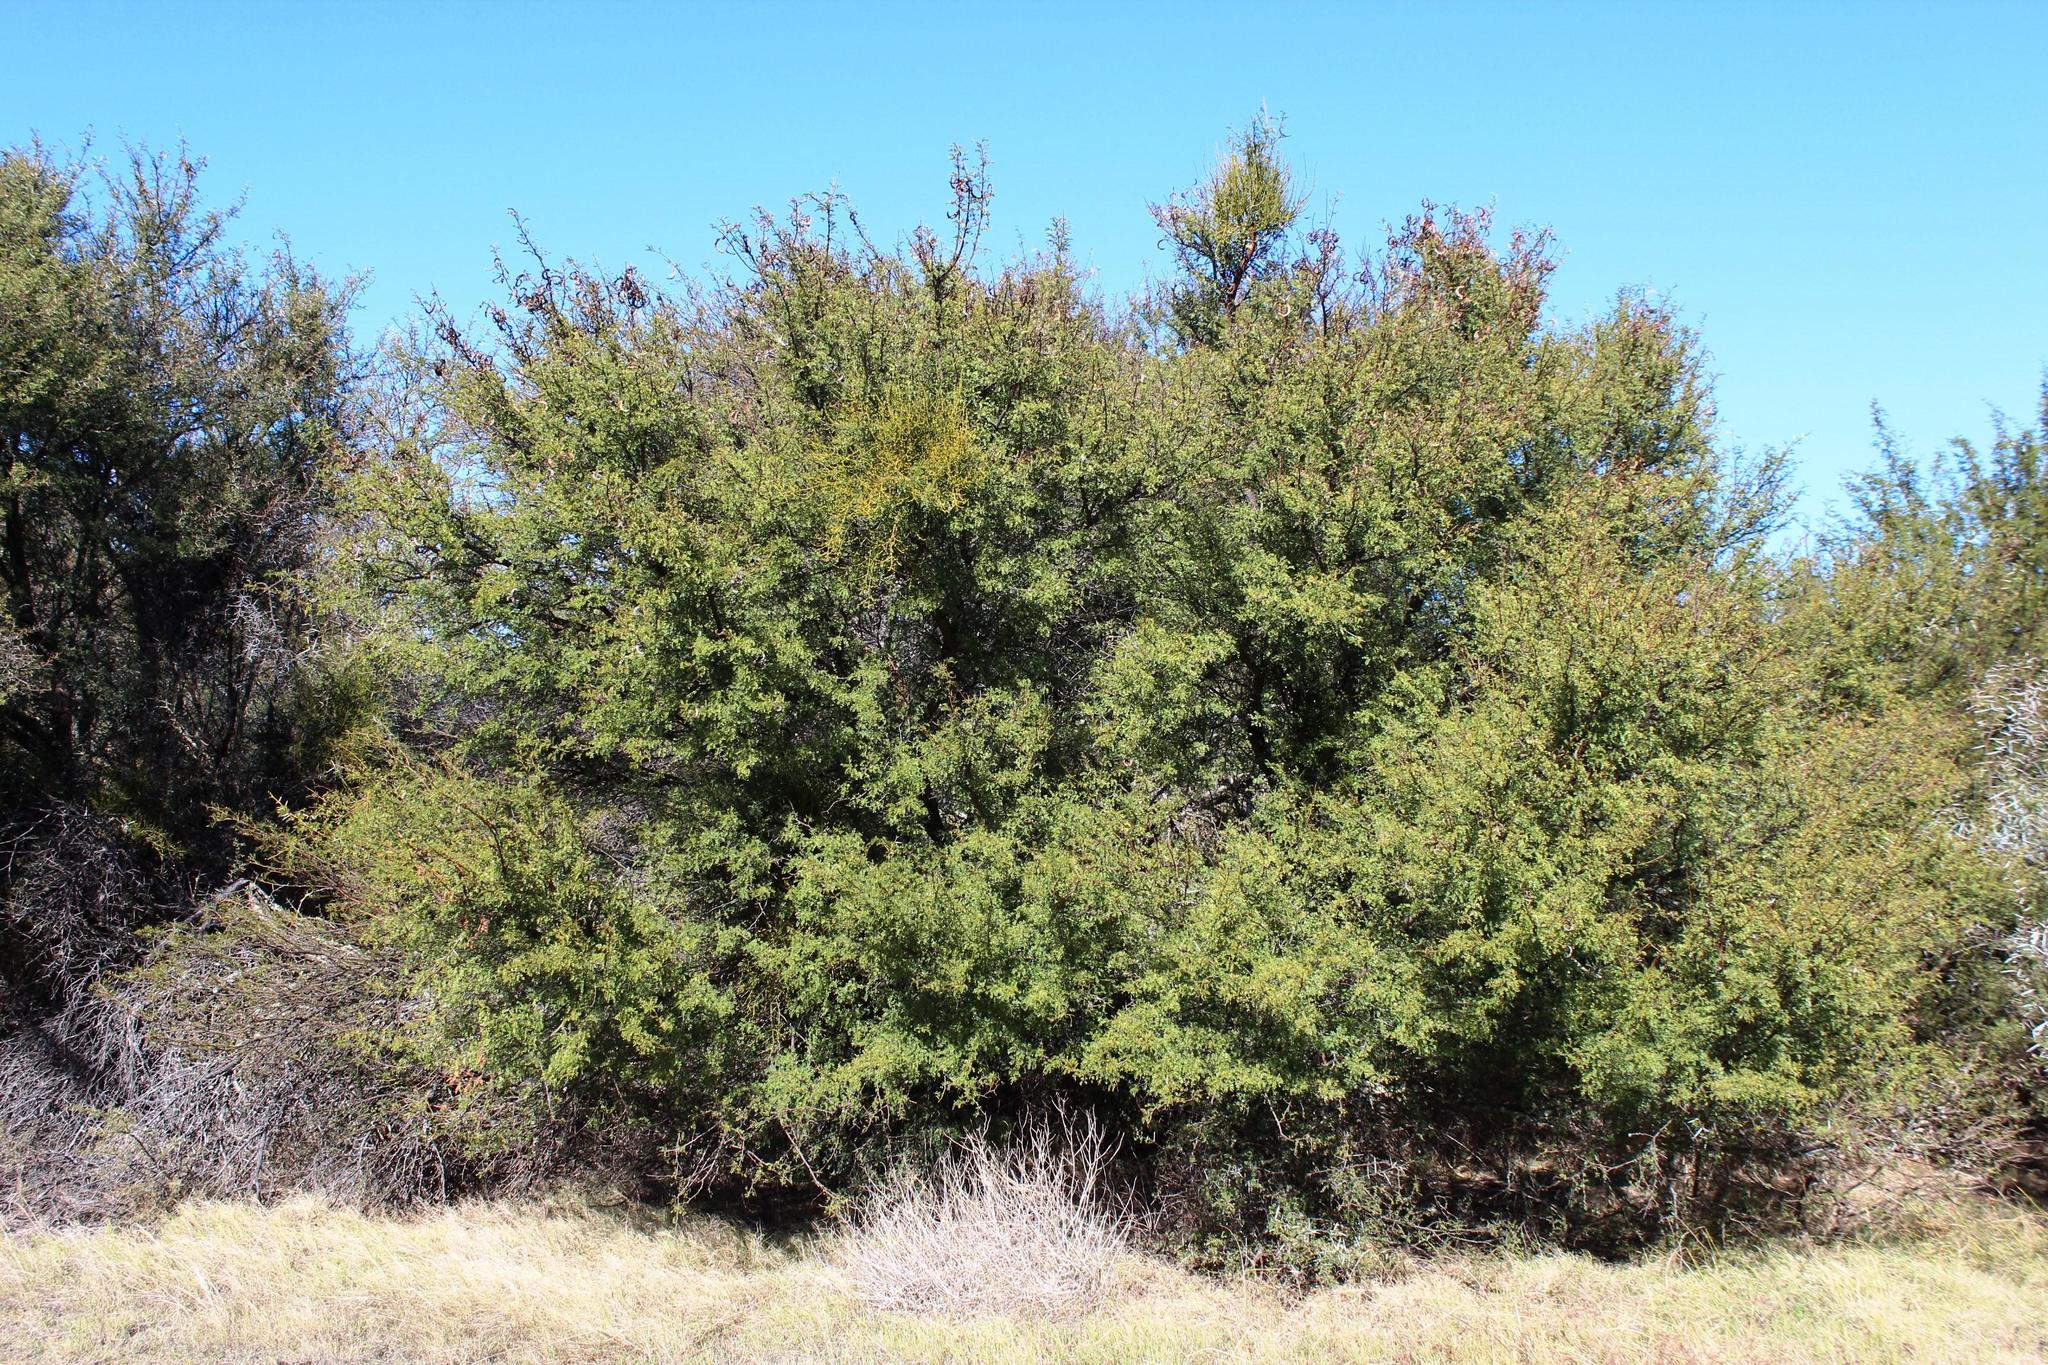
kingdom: Plantae
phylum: Tracheophyta
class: Magnoliopsida
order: Fabales
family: Fabaceae
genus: Vachellia
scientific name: Vachellia karroo
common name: Sweet thorn
